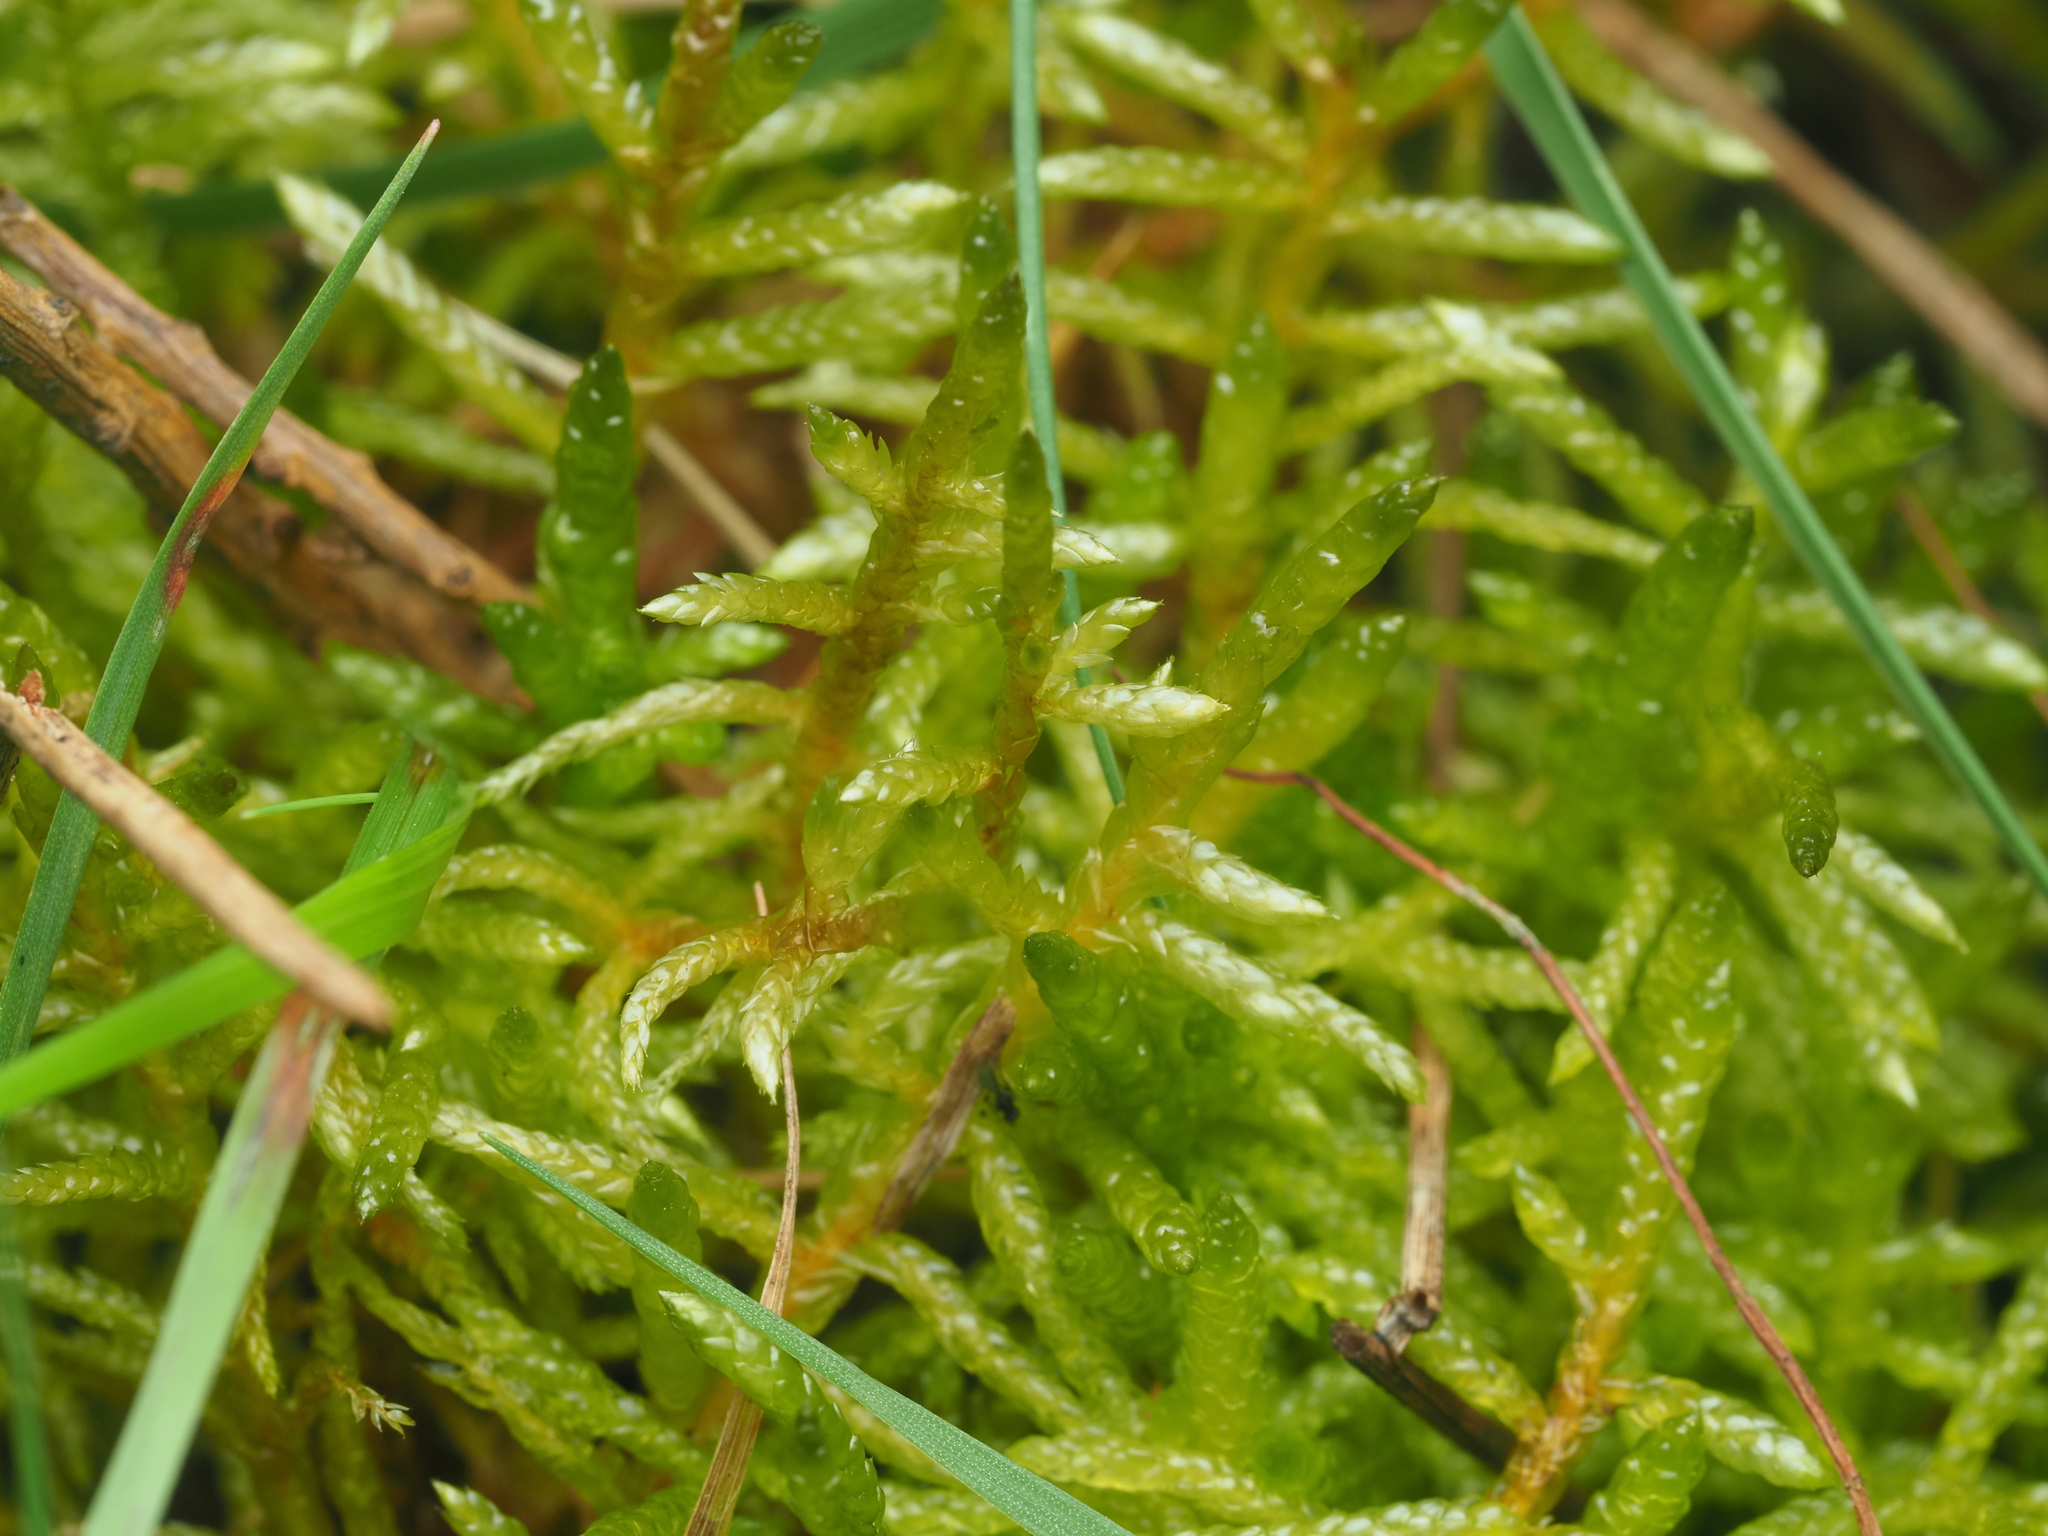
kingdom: Plantae
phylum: Bryophyta
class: Bryopsida
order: Hypnales
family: Brachytheciaceae
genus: Pseudoscleropodium
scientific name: Pseudoscleropodium purum
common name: Neat feather-moss
